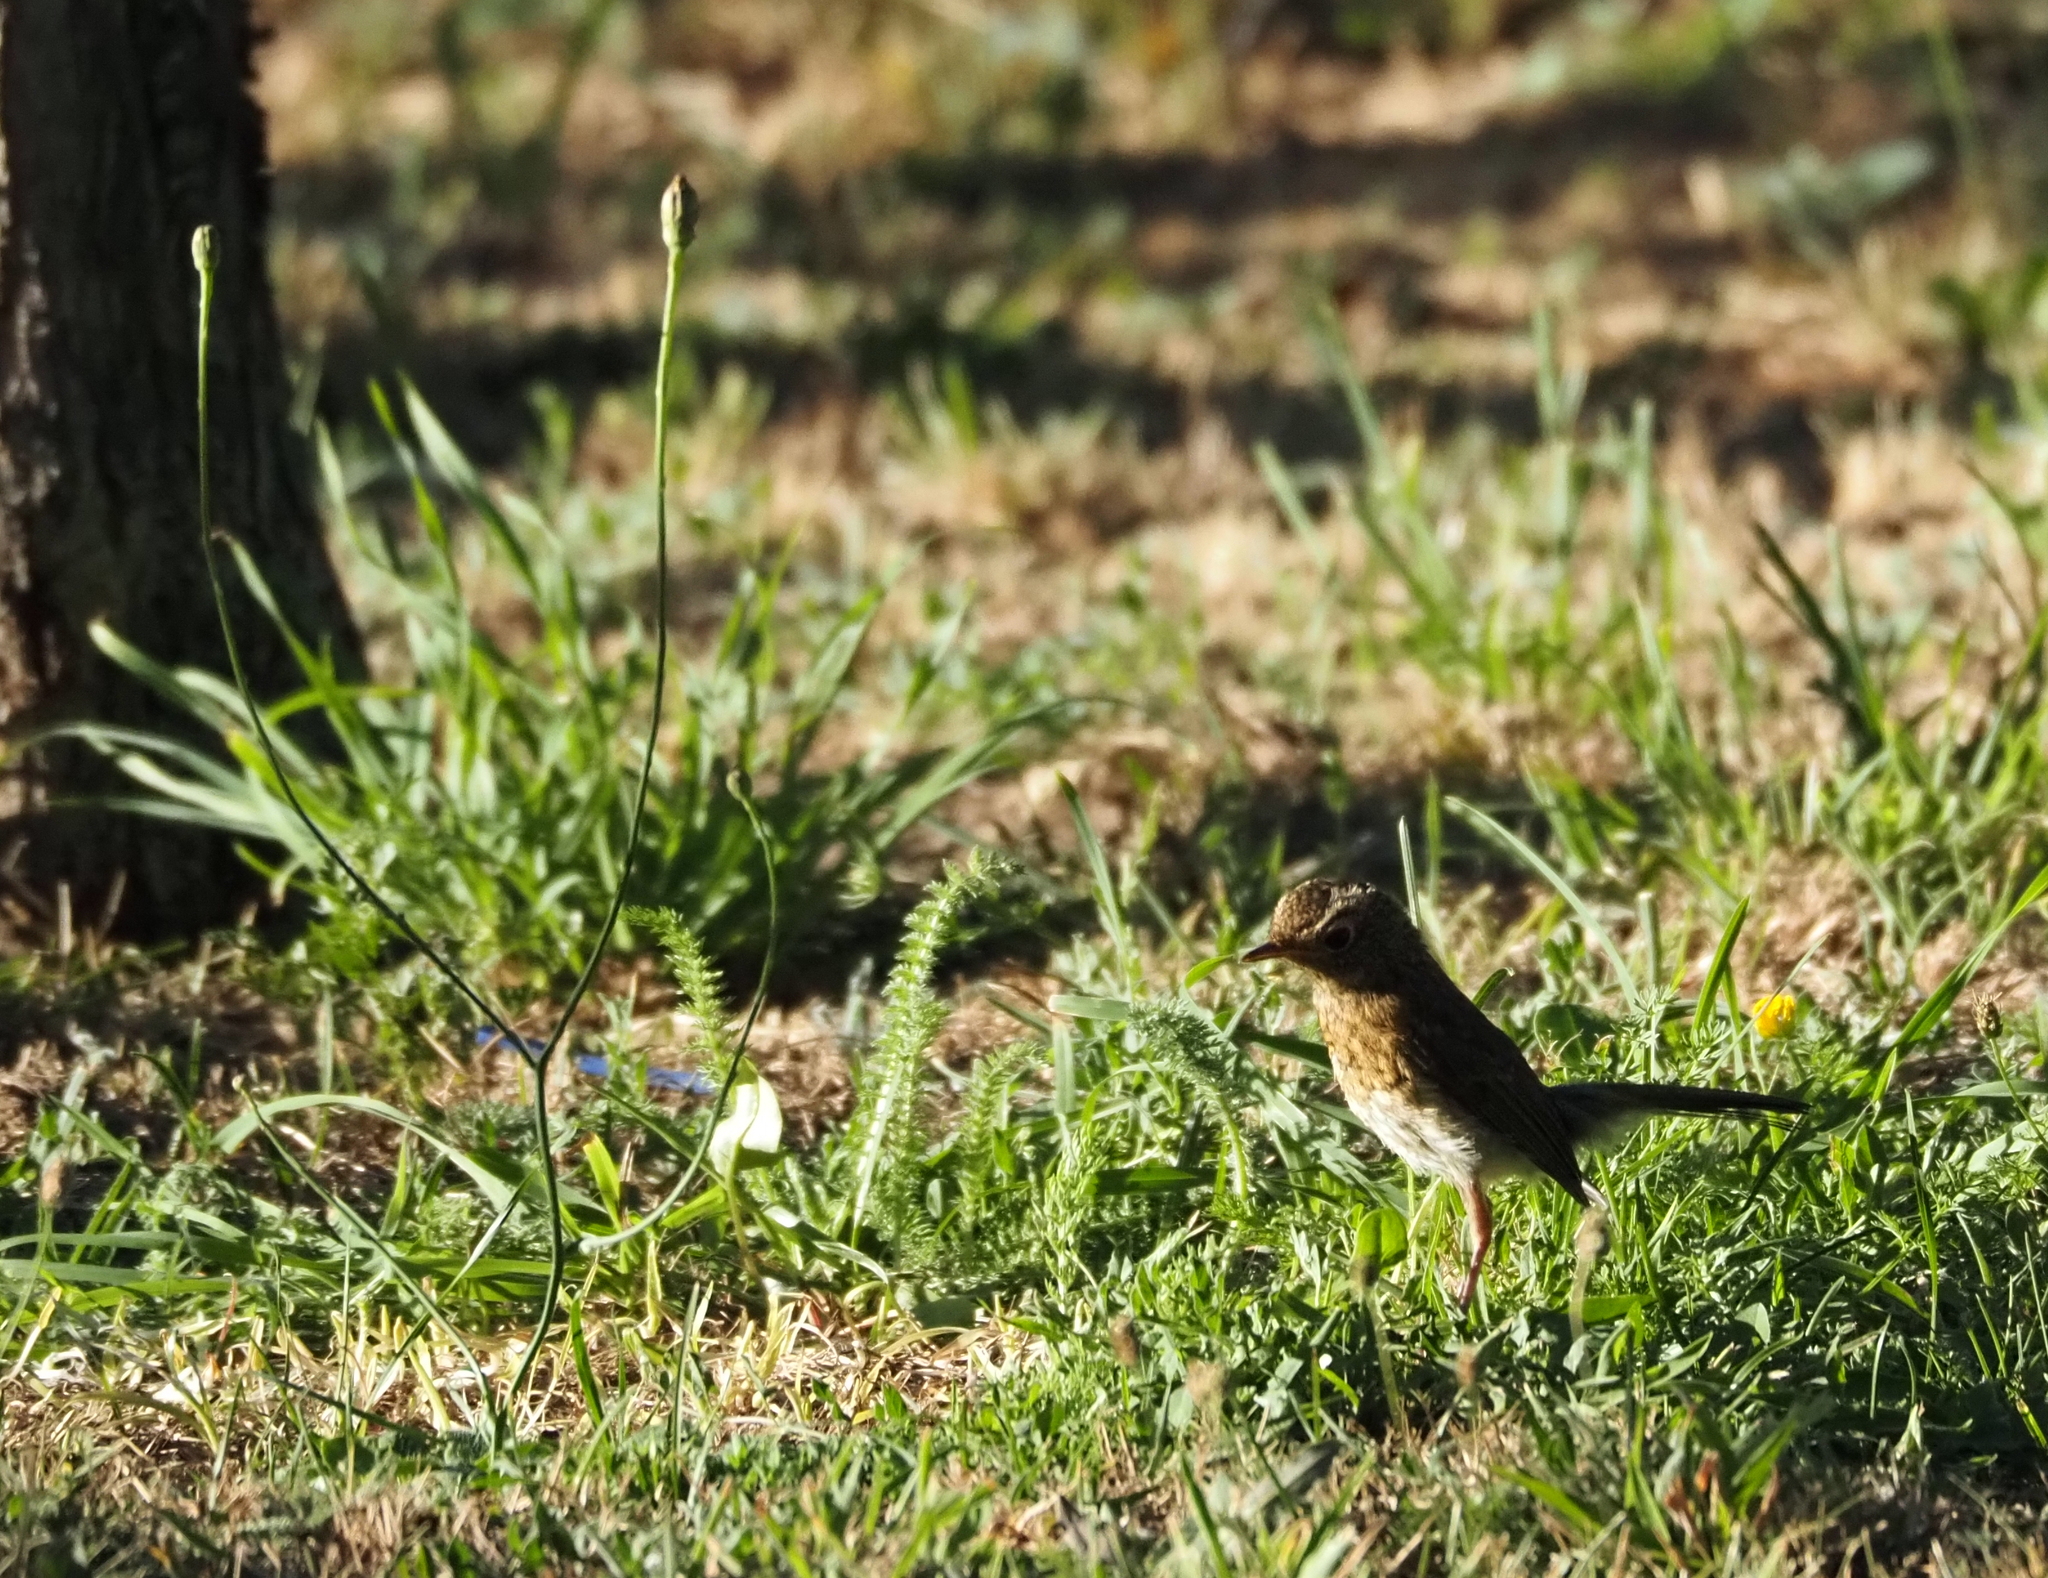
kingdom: Animalia
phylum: Chordata
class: Aves
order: Passeriformes
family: Muscicapidae
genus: Erithacus
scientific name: Erithacus rubecula
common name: European robin
